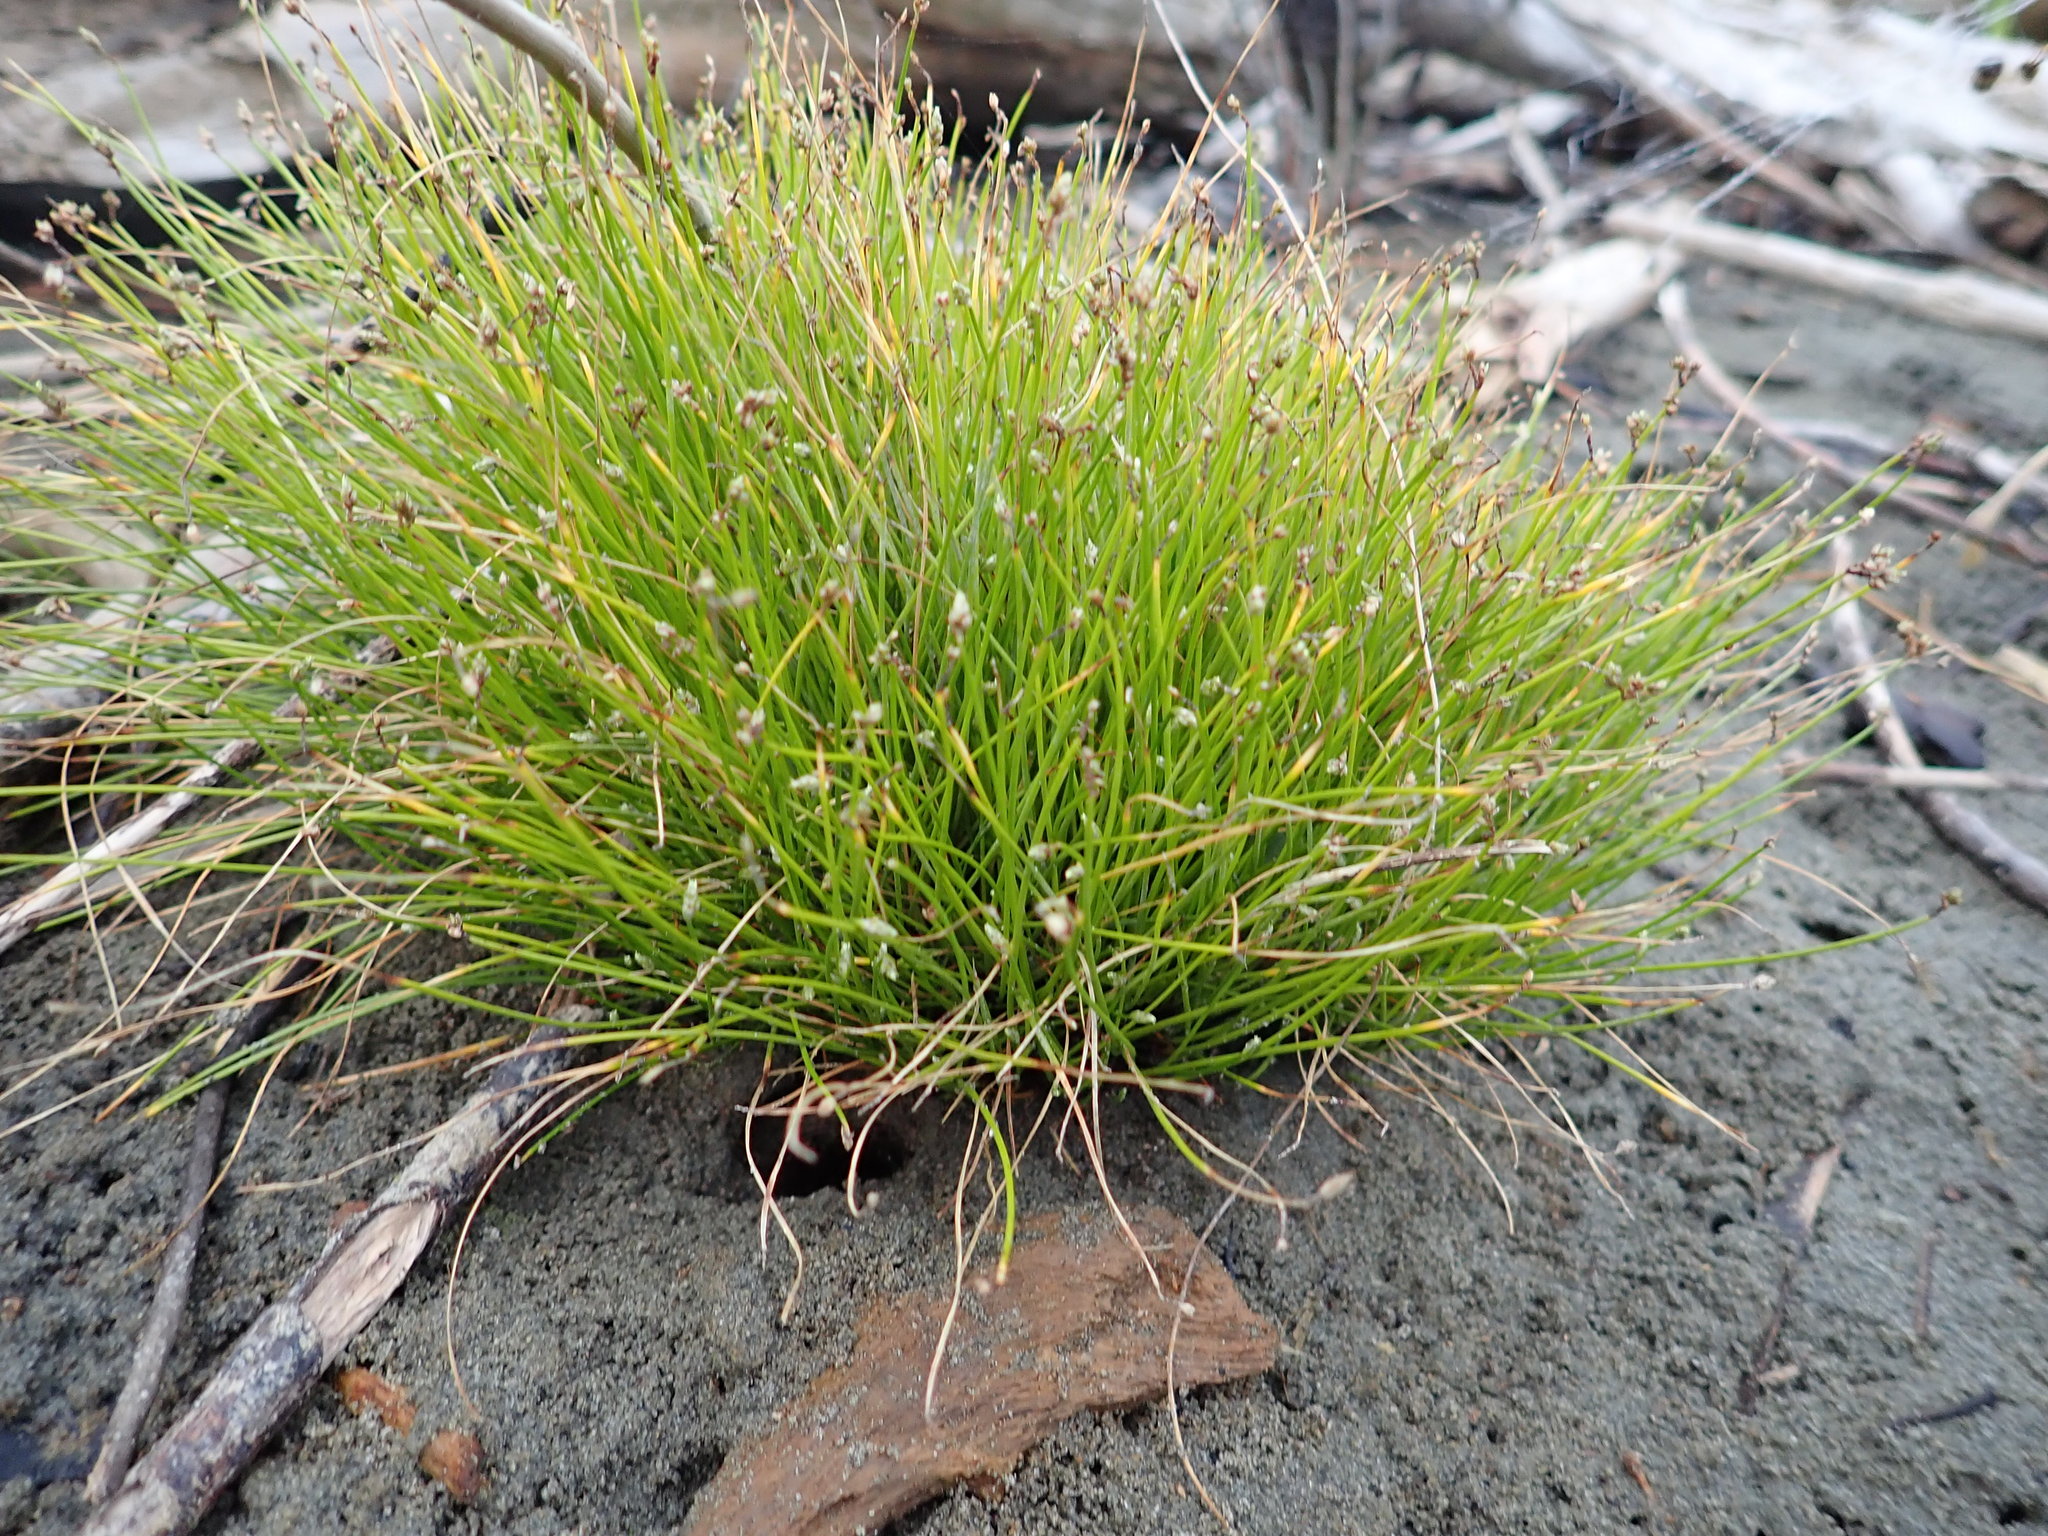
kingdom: Plantae
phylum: Tracheophyta
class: Liliopsida
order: Poales
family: Cyperaceae
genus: Isolepis
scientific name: Isolepis cernua
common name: Slender club-rush
